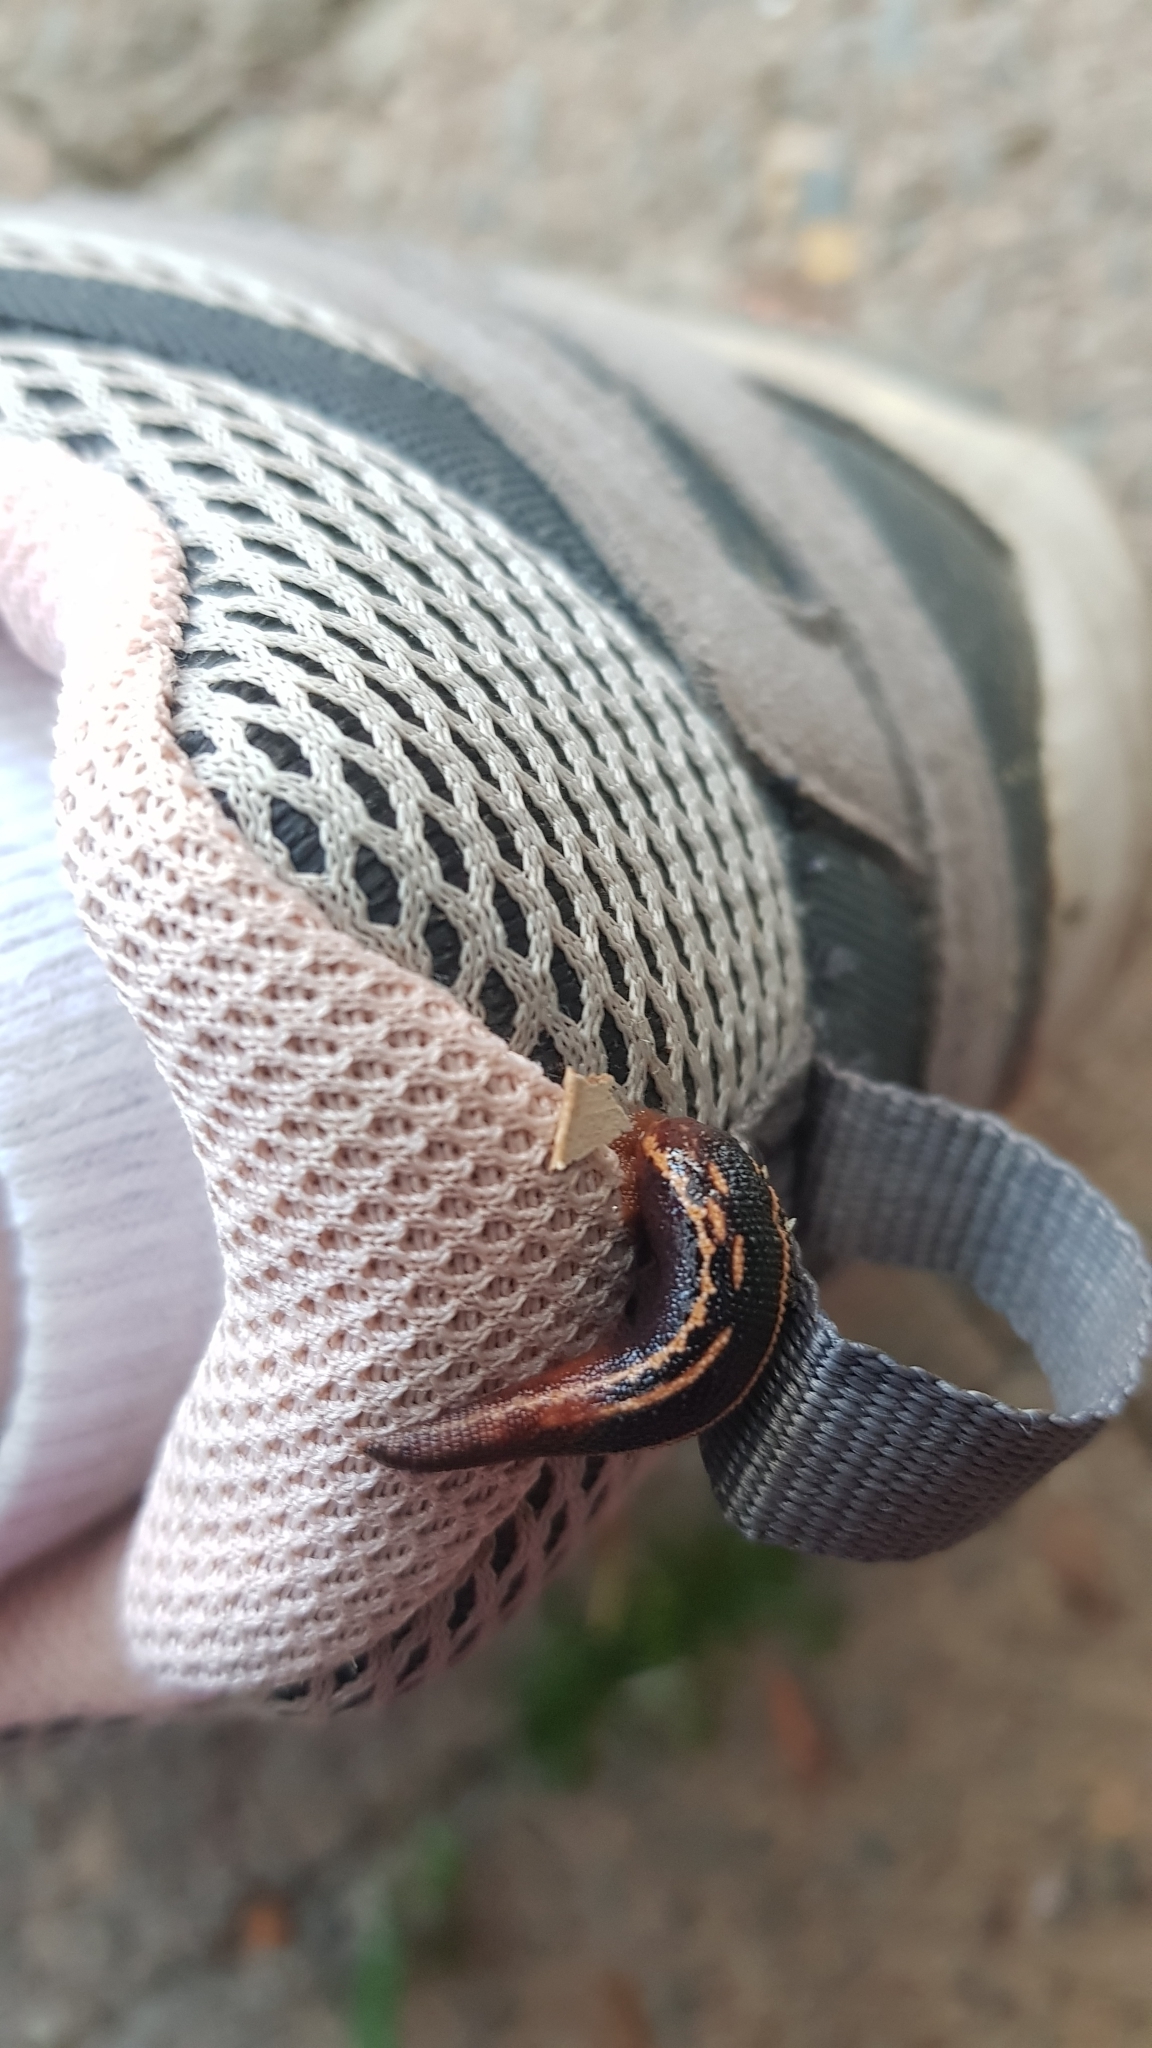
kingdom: Animalia
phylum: Annelida
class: Clitellata
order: Arhynchobdellida
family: Haemadipsidae
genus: Chtonobdella
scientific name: Chtonobdella limbata
